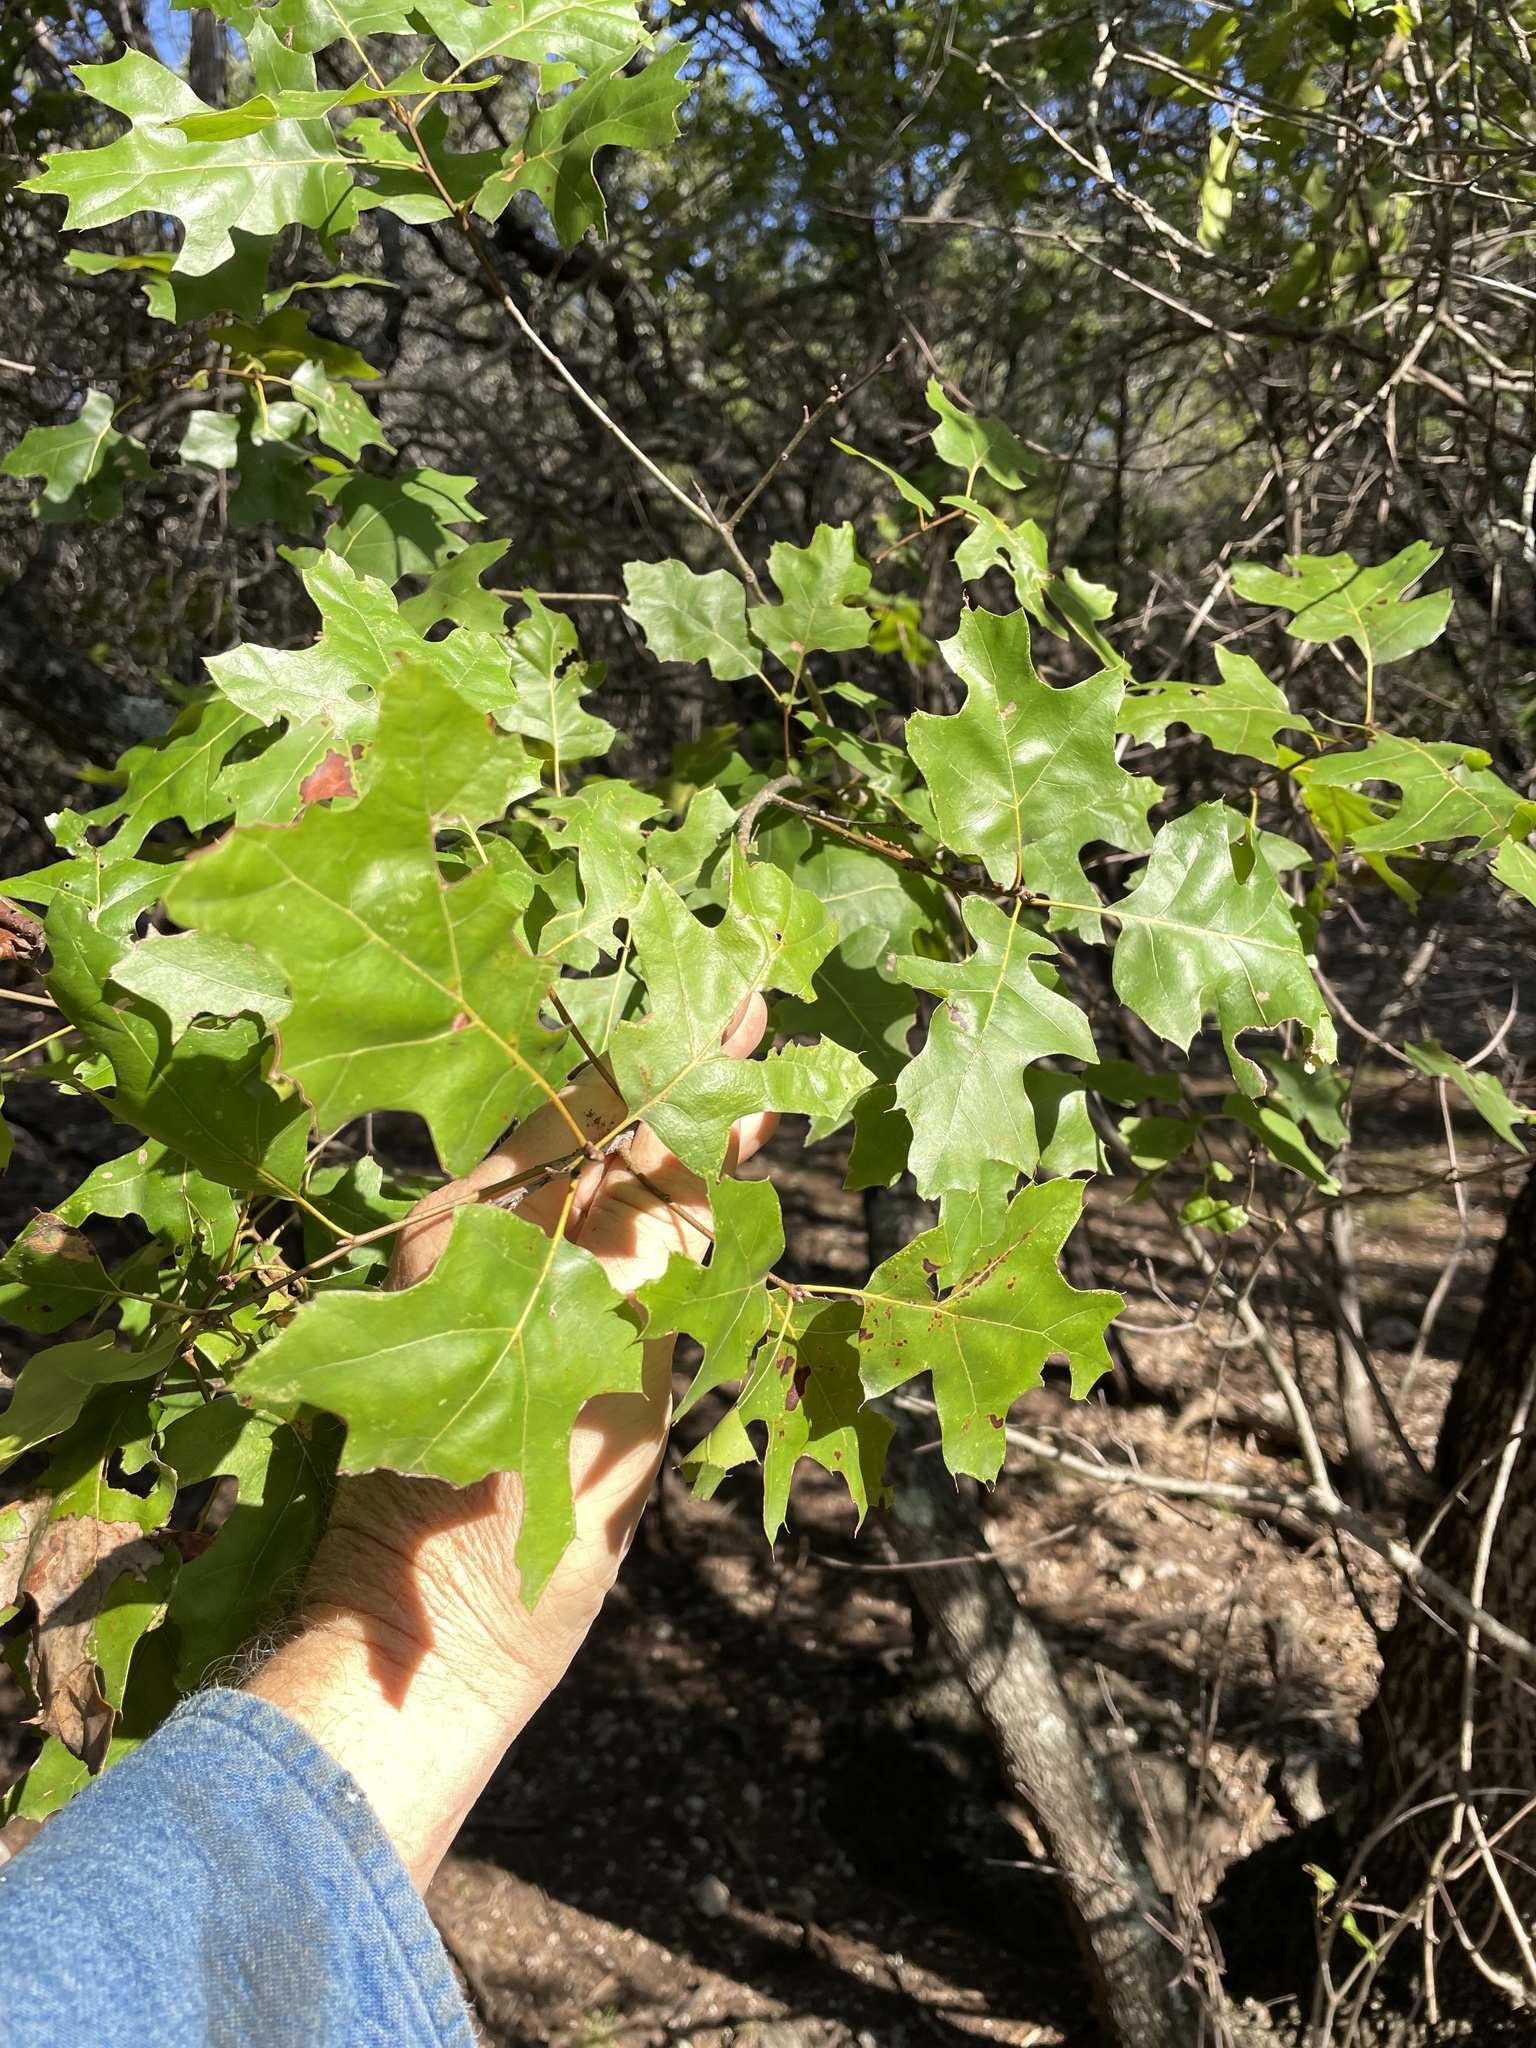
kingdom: Plantae
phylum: Tracheophyta
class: Magnoliopsida
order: Fagales
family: Fagaceae
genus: Quercus
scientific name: Quercus buckleyi
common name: Buckley oak
